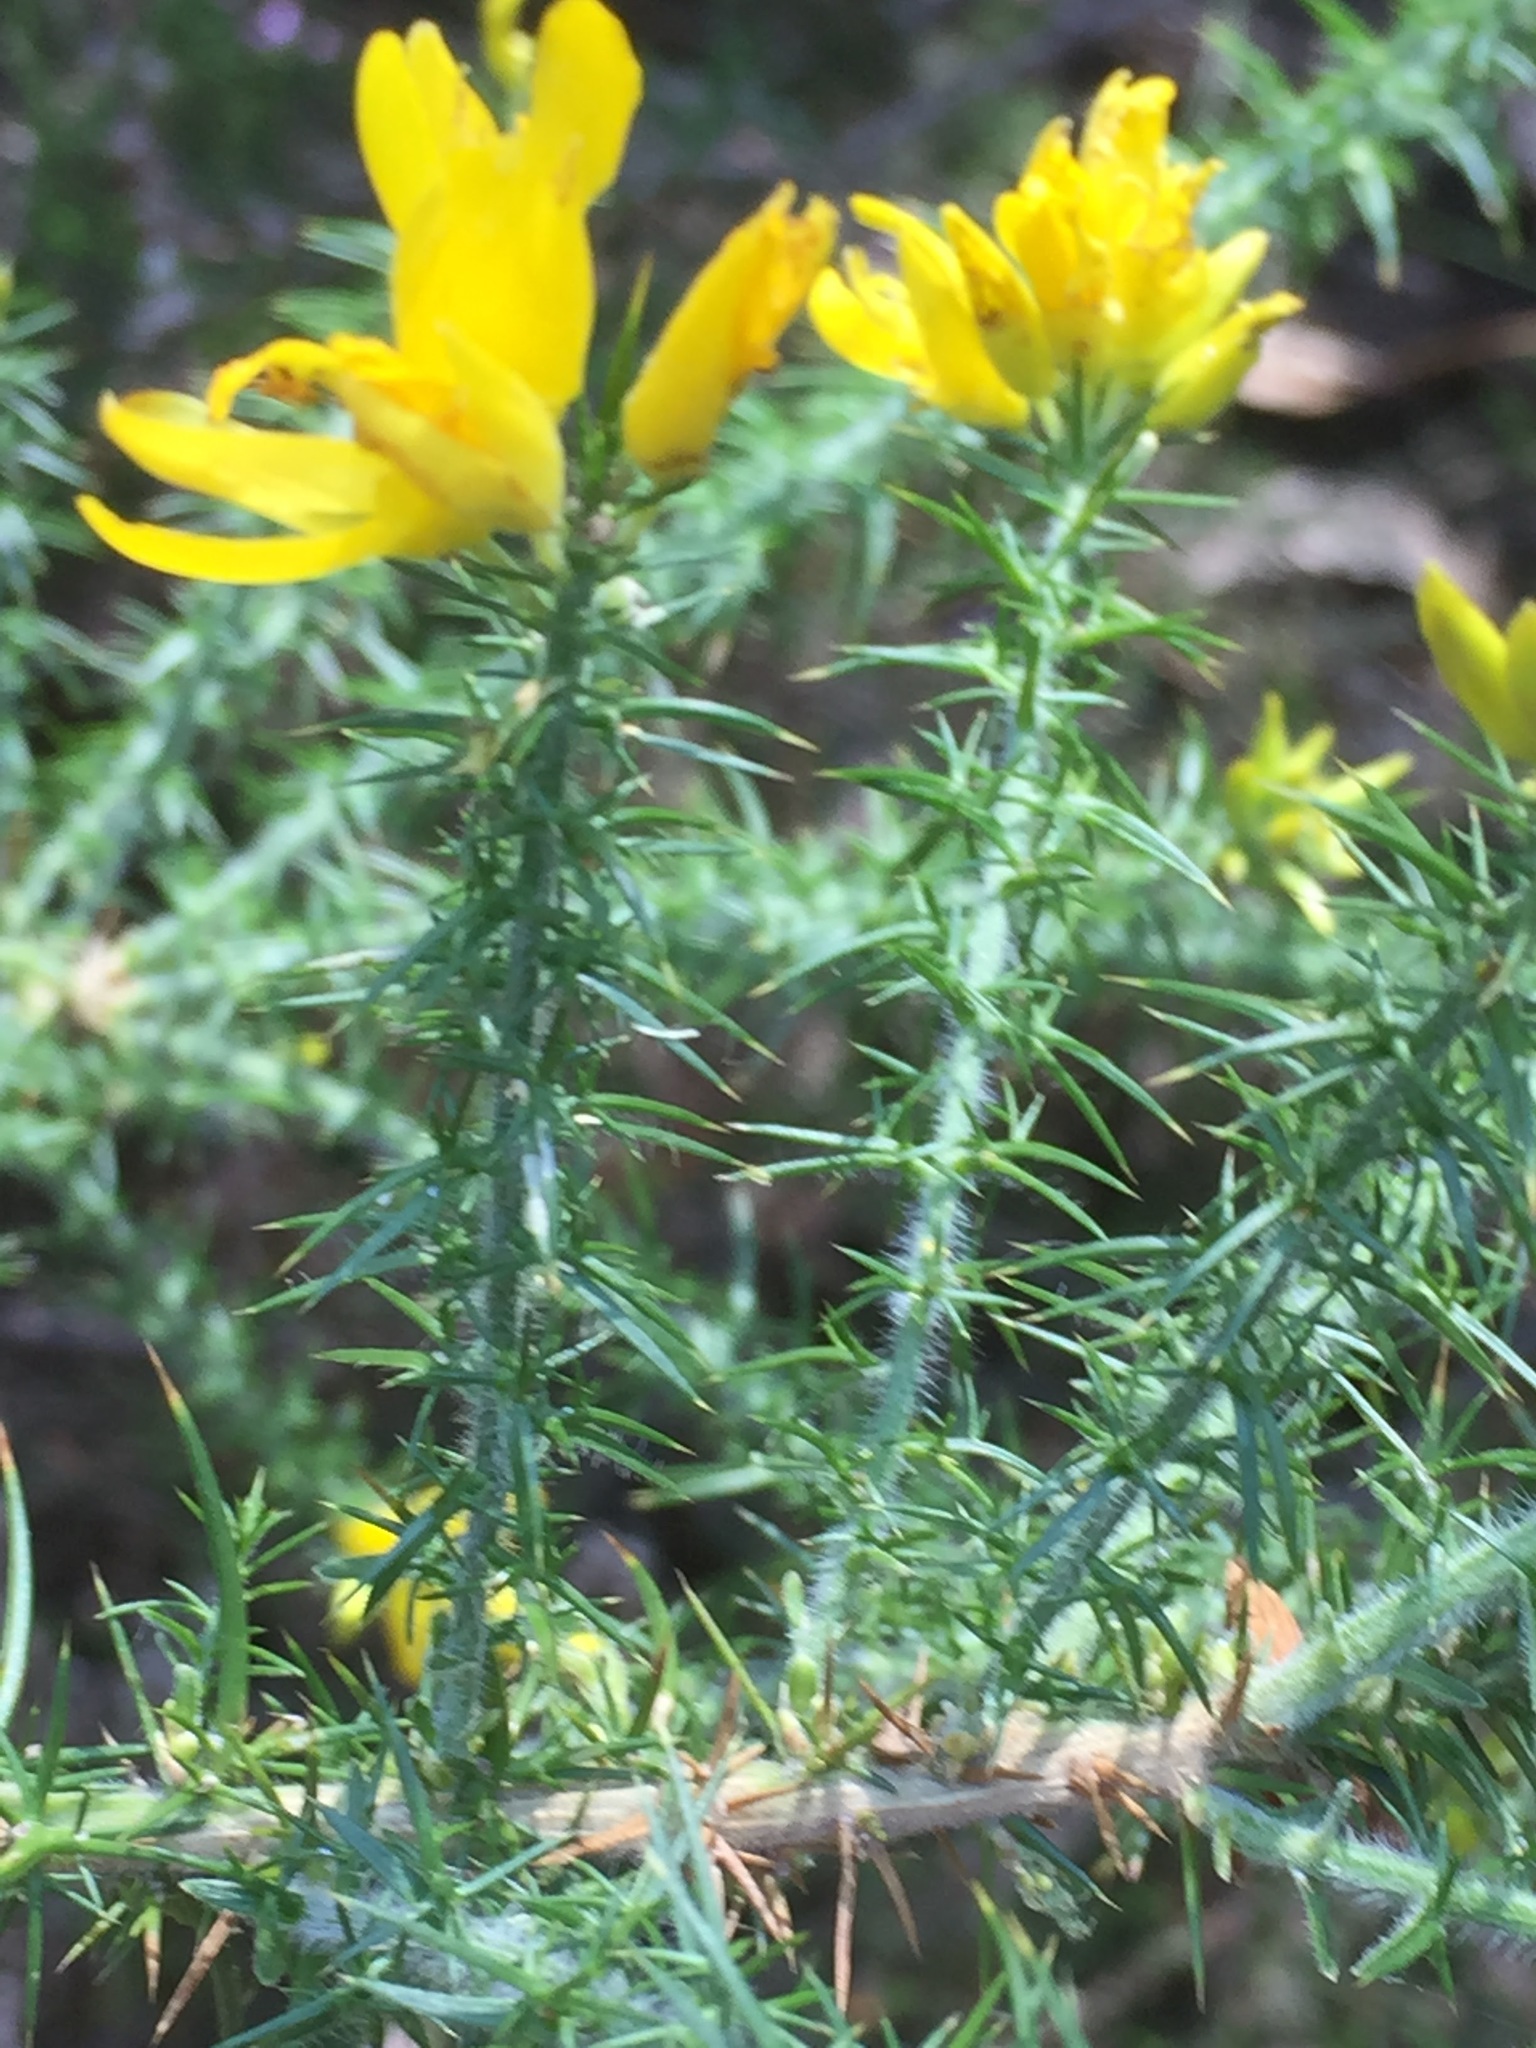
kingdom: Plantae
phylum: Tracheophyta
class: Magnoliopsida
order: Fabales
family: Fabaceae
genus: Ulex
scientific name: Ulex europaeus
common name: Common gorse
